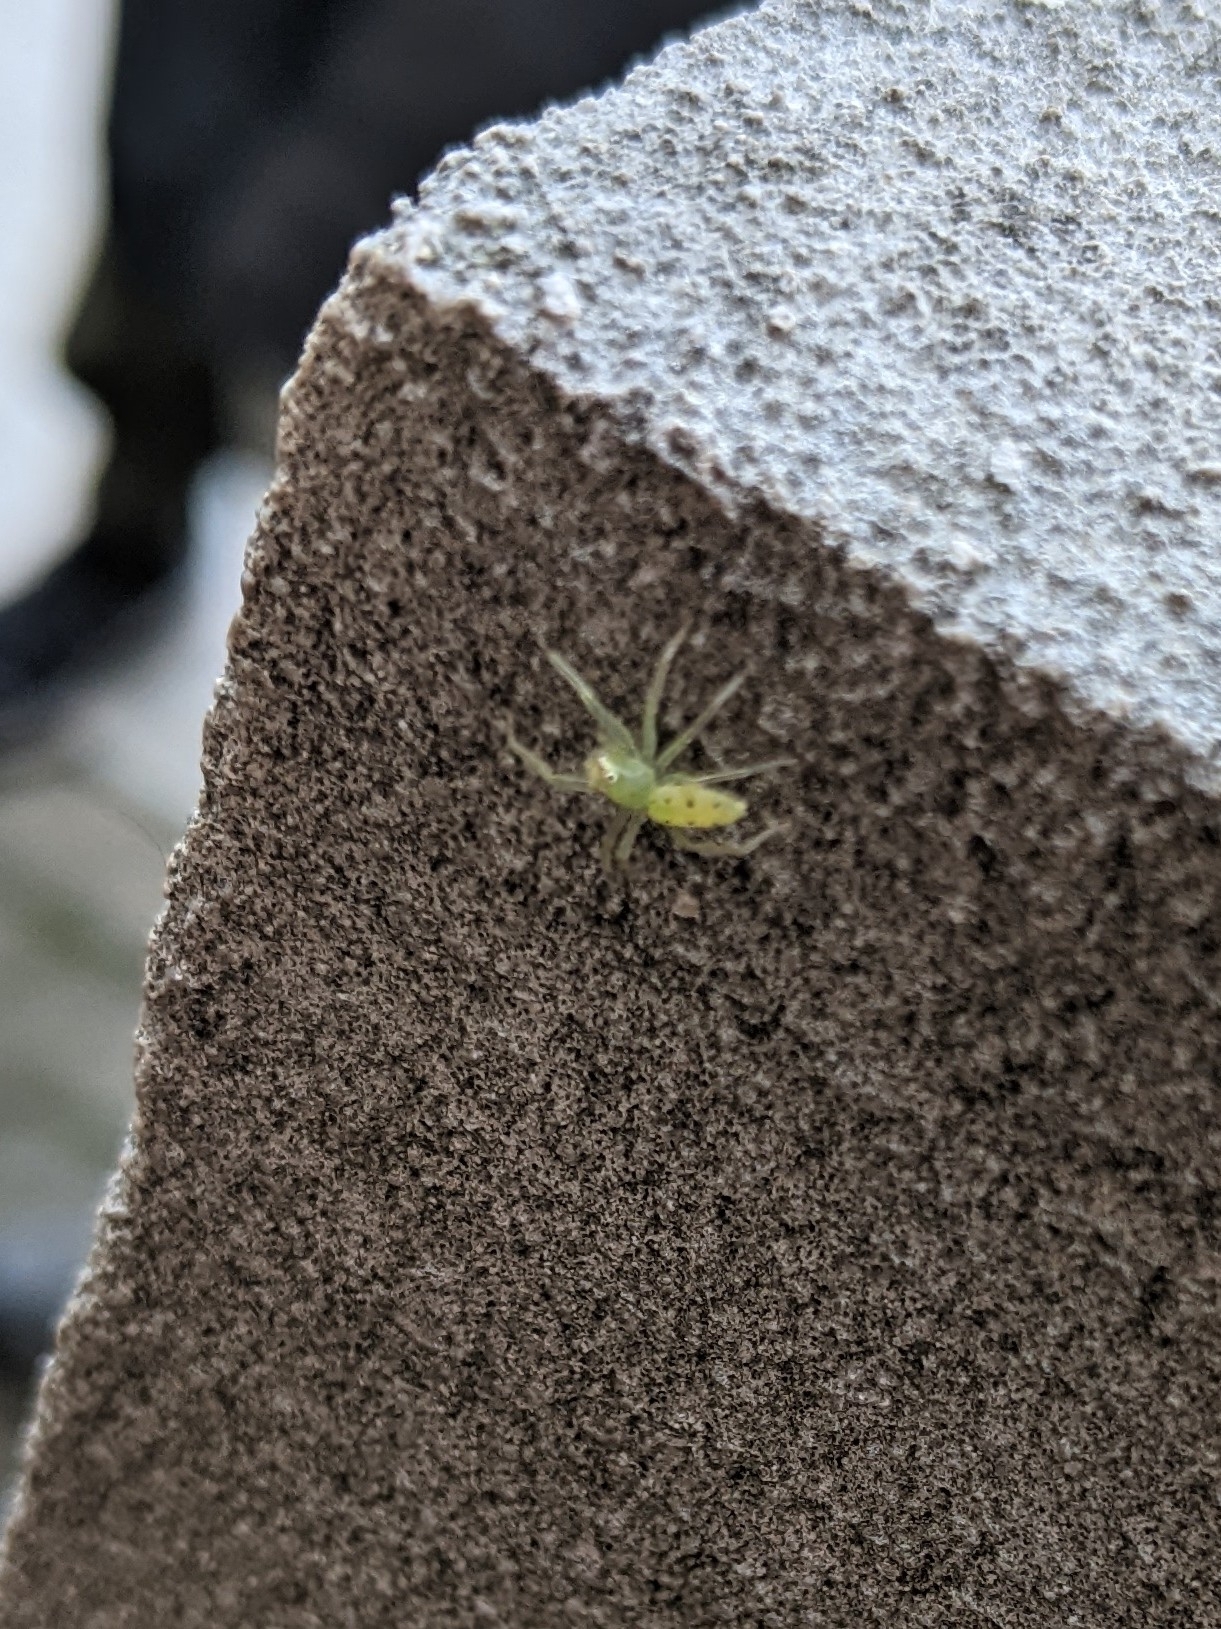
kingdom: Animalia
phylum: Arthropoda
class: Arachnida
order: Araneae
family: Salticidae
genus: Lyssomanes
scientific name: Lyssomanes viridis
